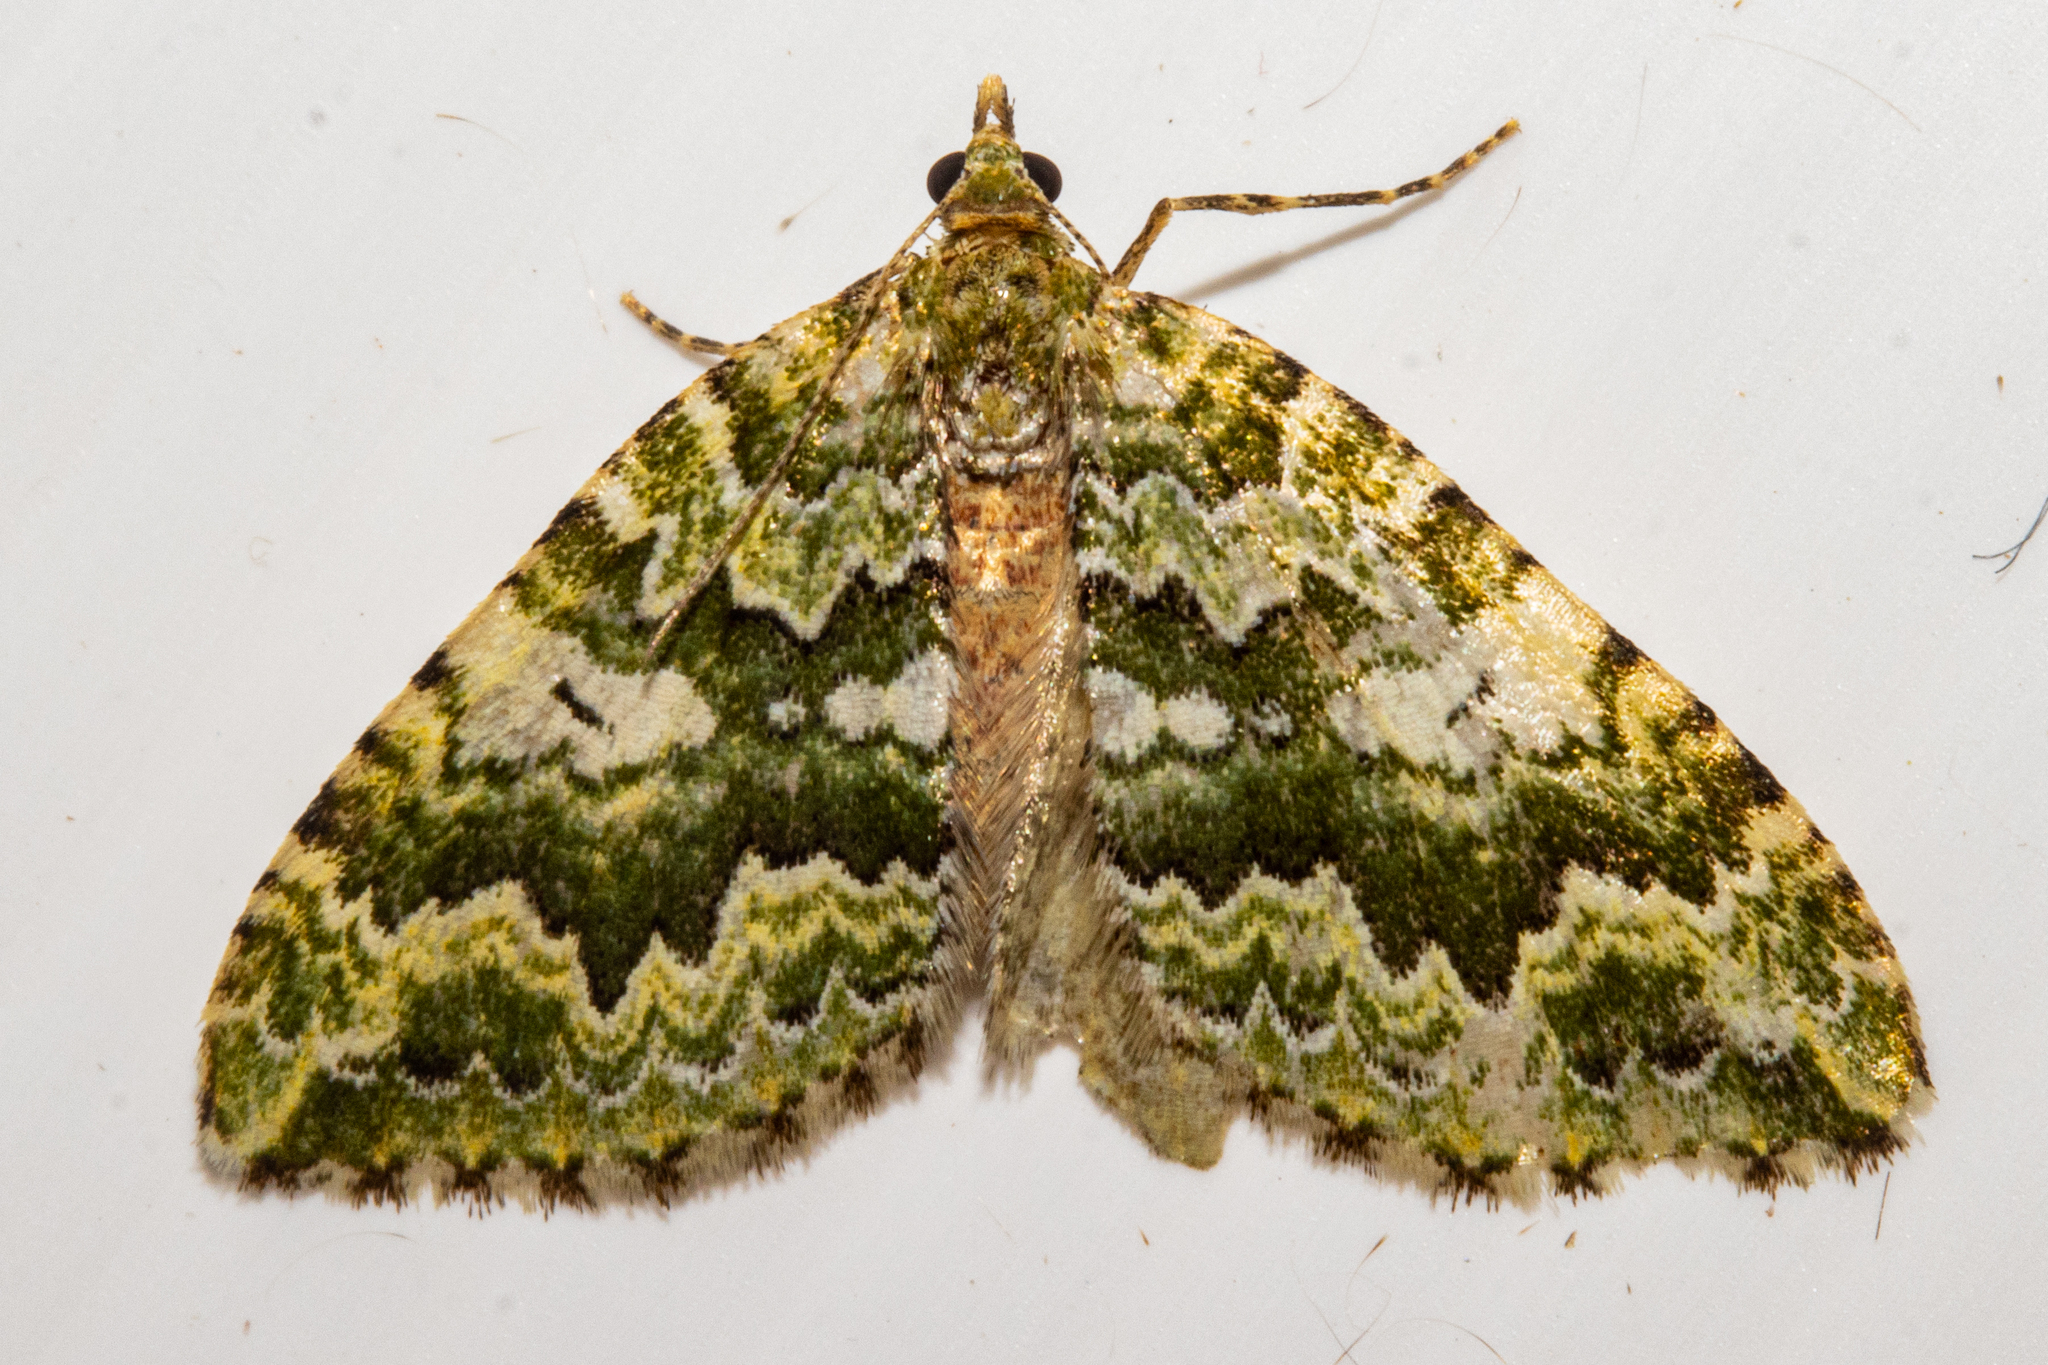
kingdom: Animalia
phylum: Arthropoda
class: Insecta
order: Lepidoptera
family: Geometridae
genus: Asaphodes
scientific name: Asaphodes beata
